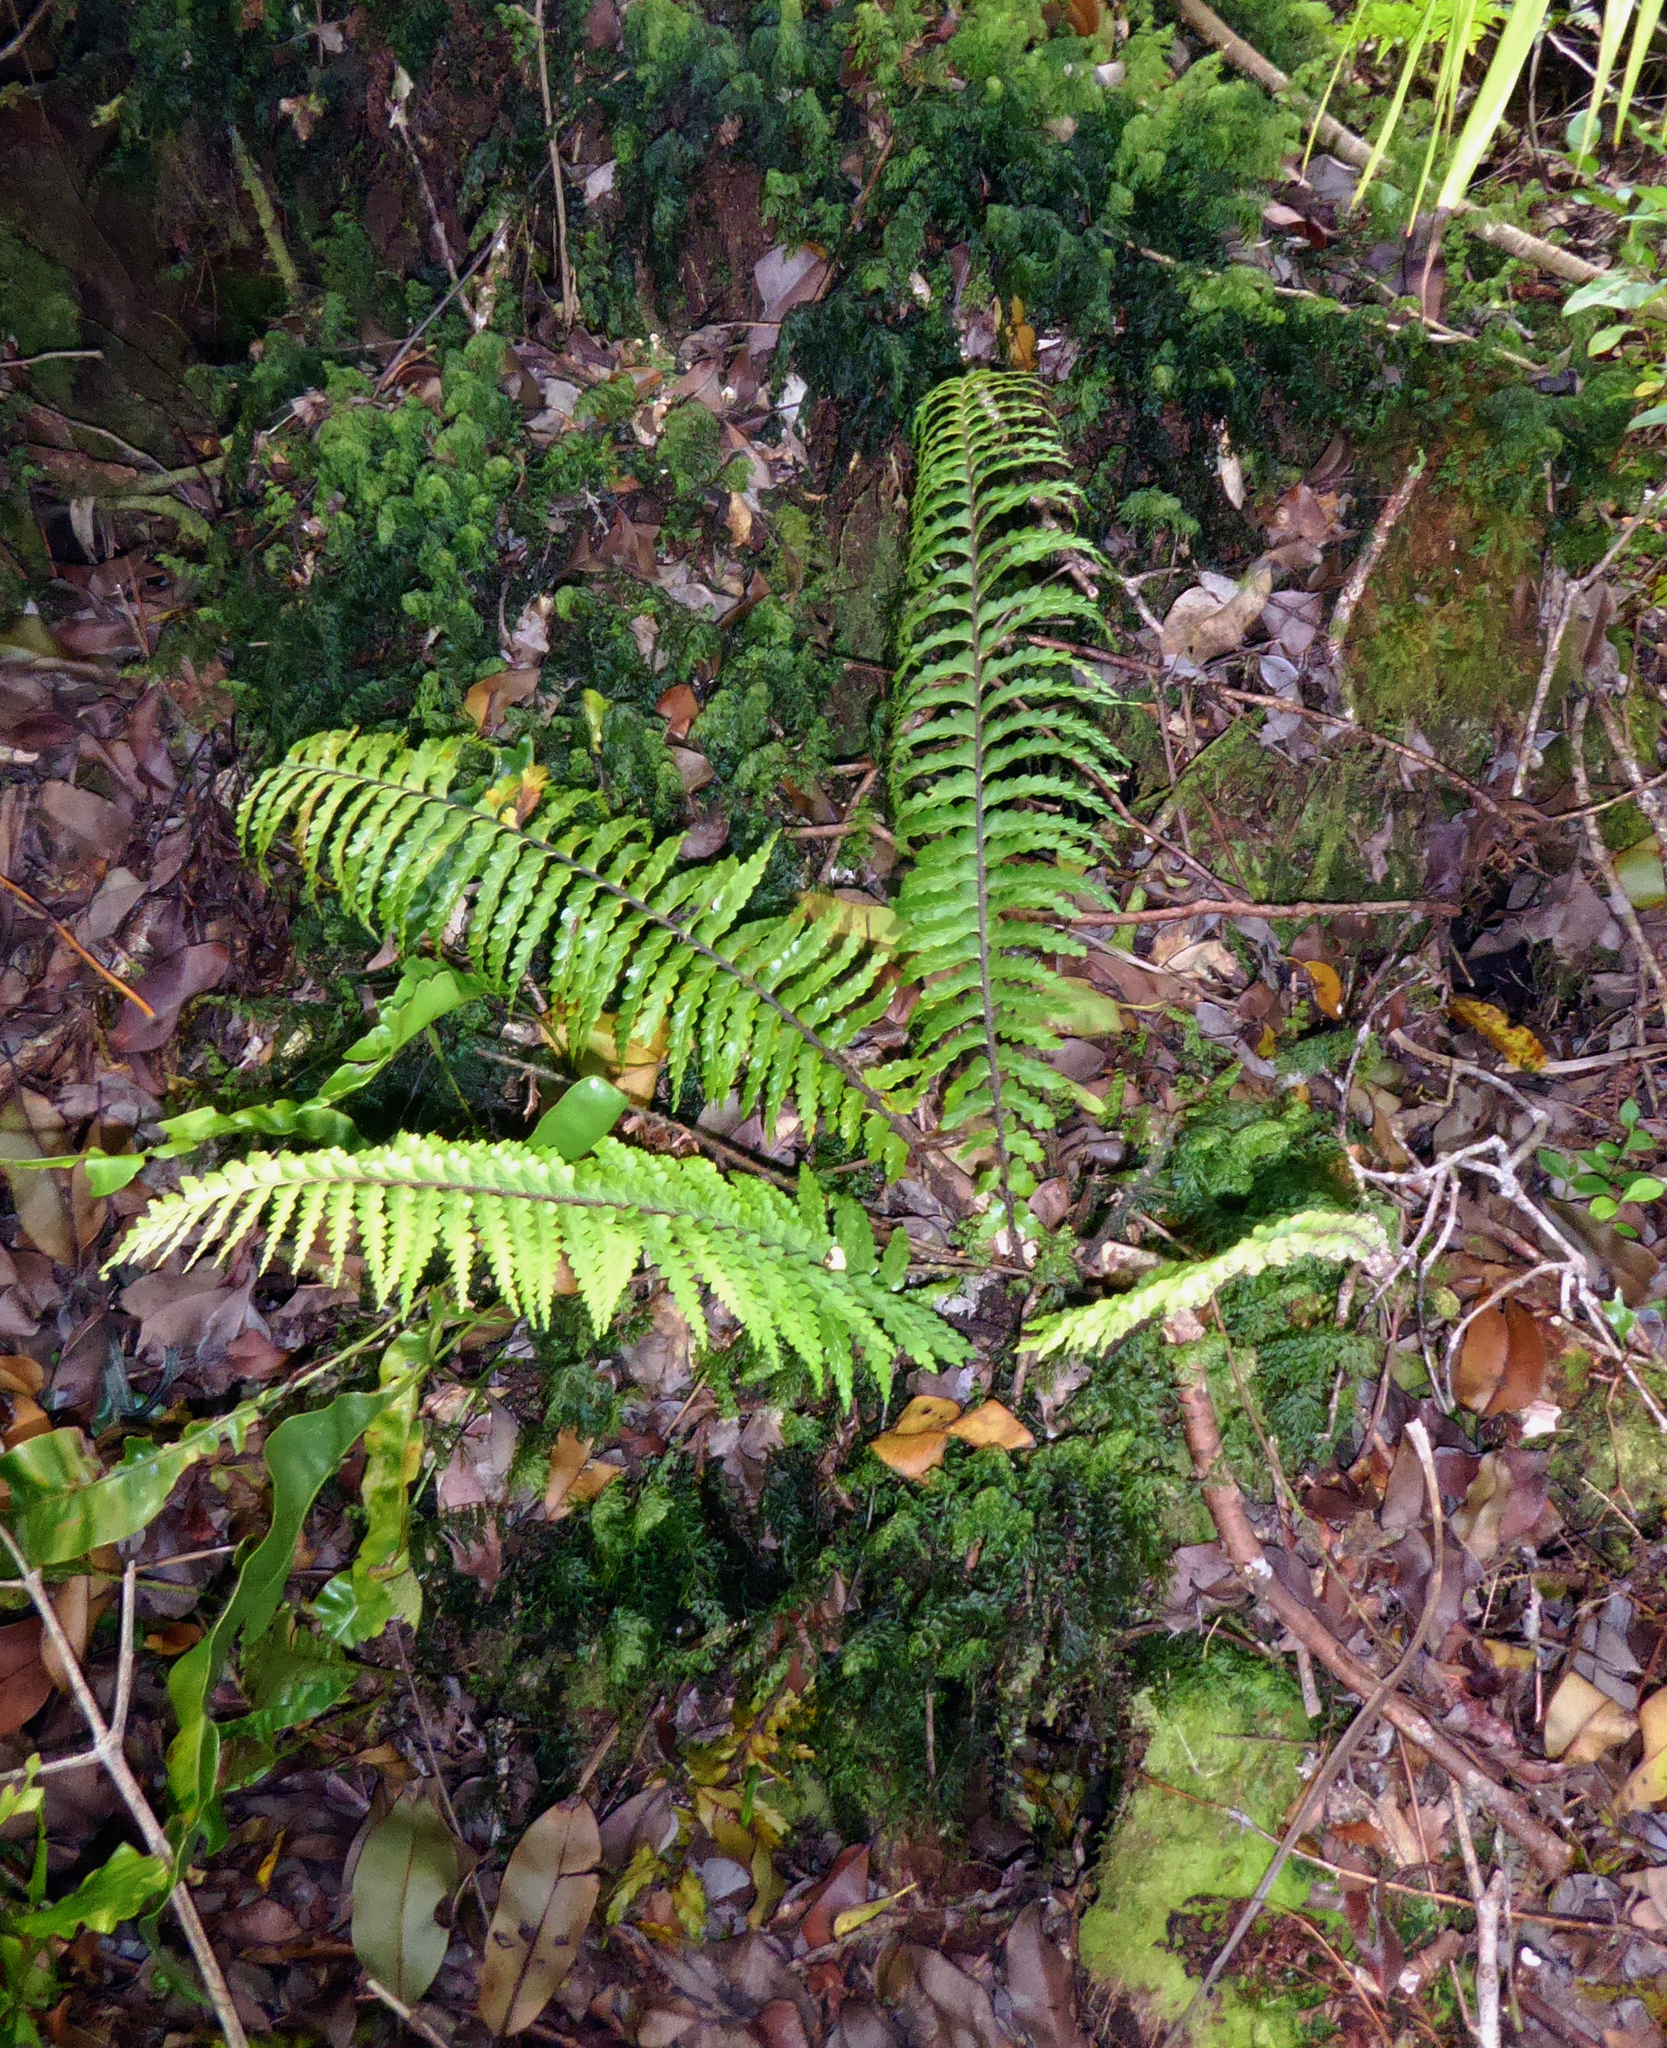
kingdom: Plantae
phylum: Tracheophyta
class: Polypodiopsida
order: Polypodiales
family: Aspleniaceae
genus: Asplenium
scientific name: Asplenium caudatum
